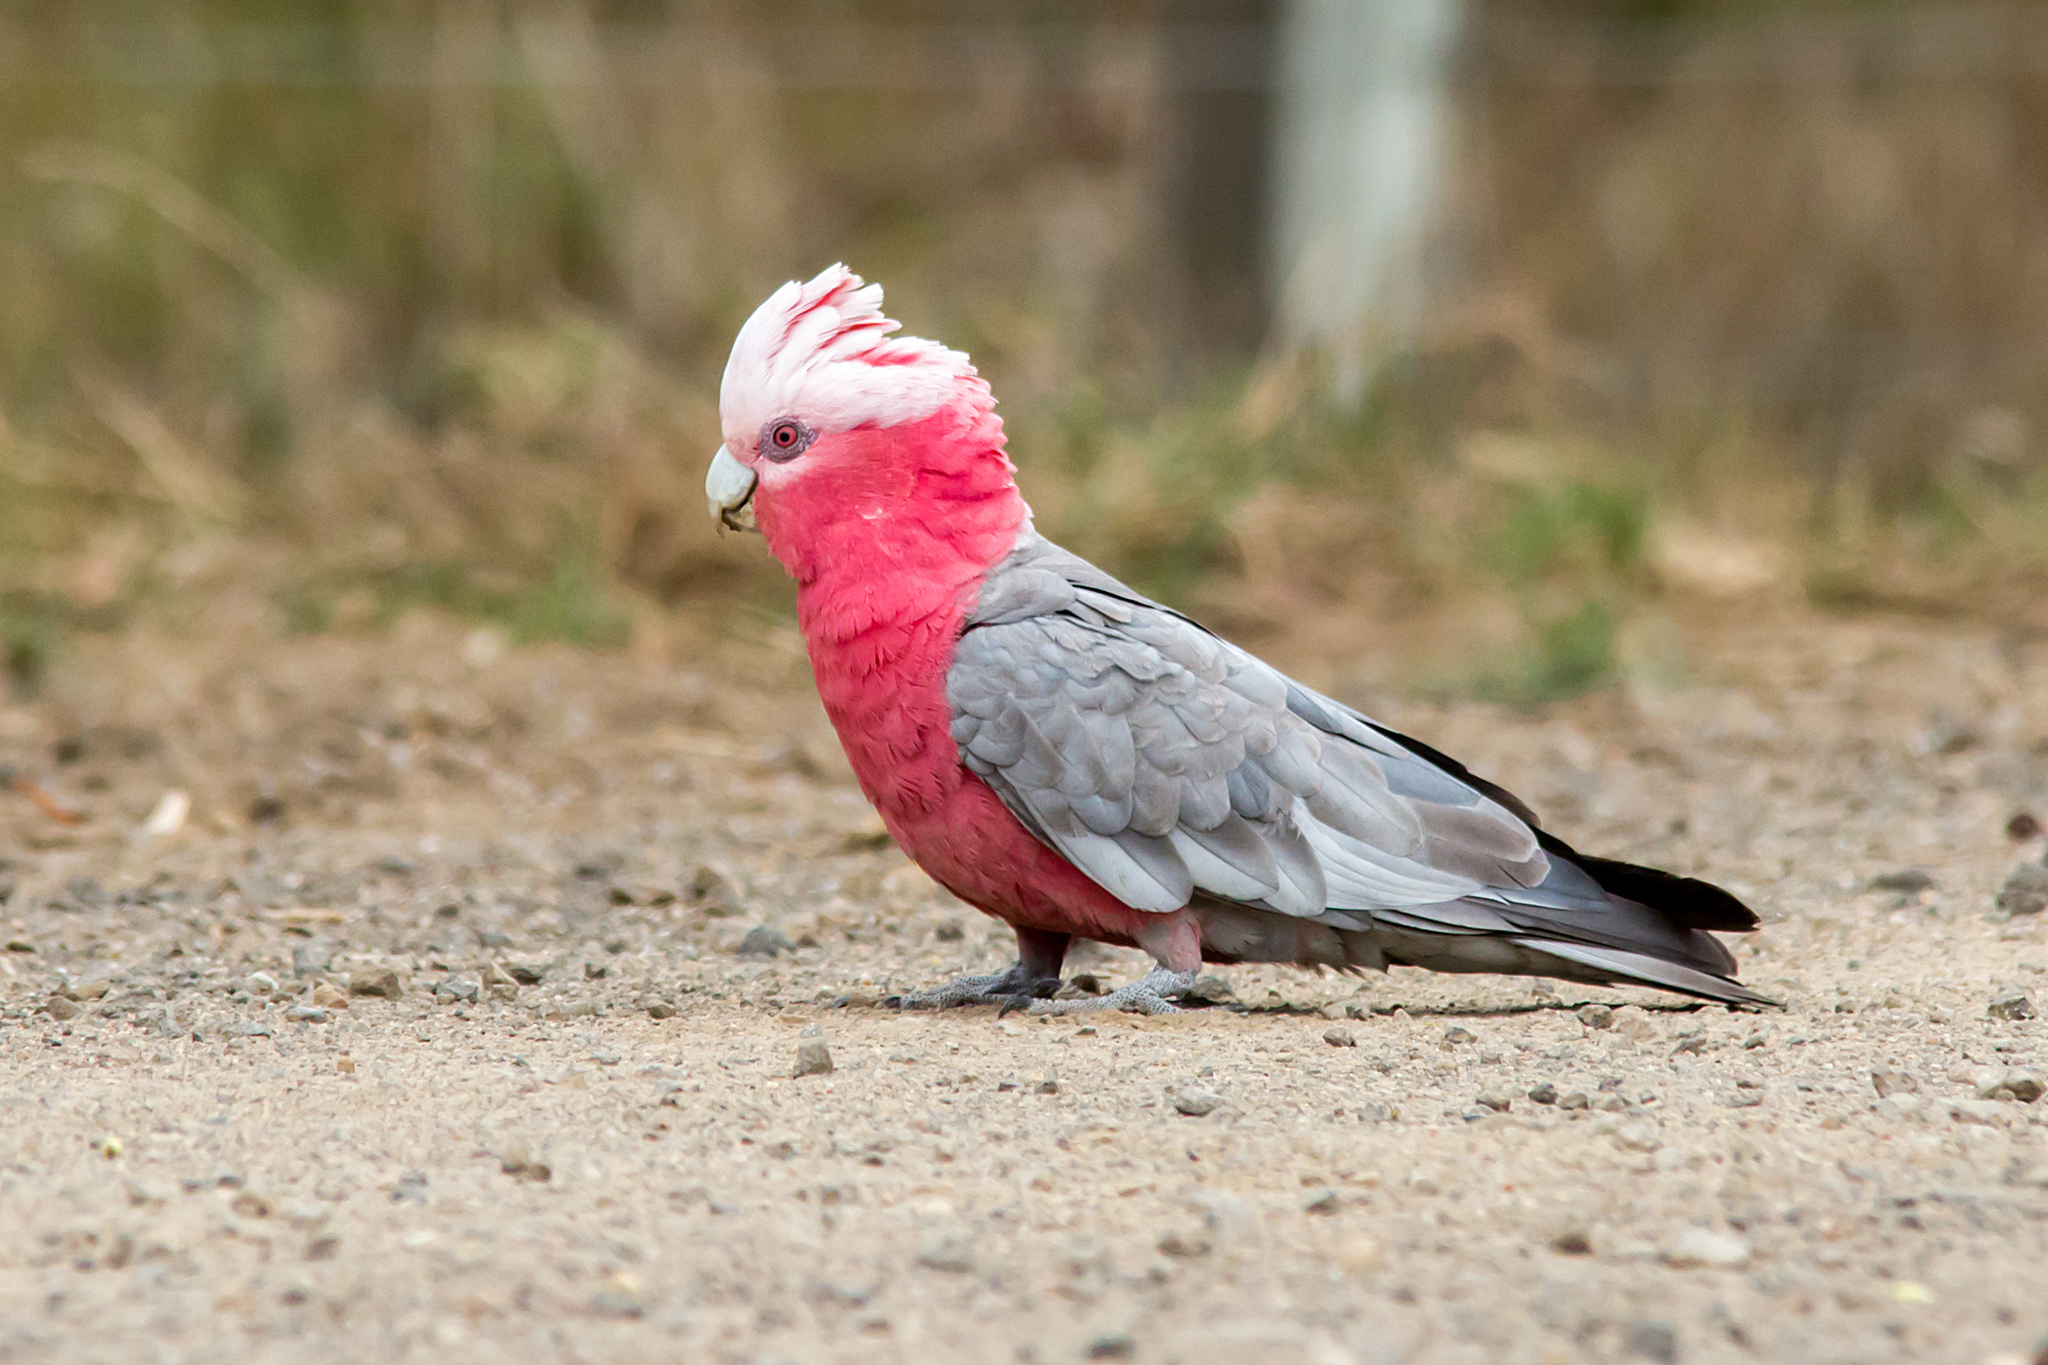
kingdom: Animalia
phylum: Chordata
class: Aves
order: Psittaciformes
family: Psittacidae
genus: Eolophus
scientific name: Eolophus roseicapilla
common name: Galah
